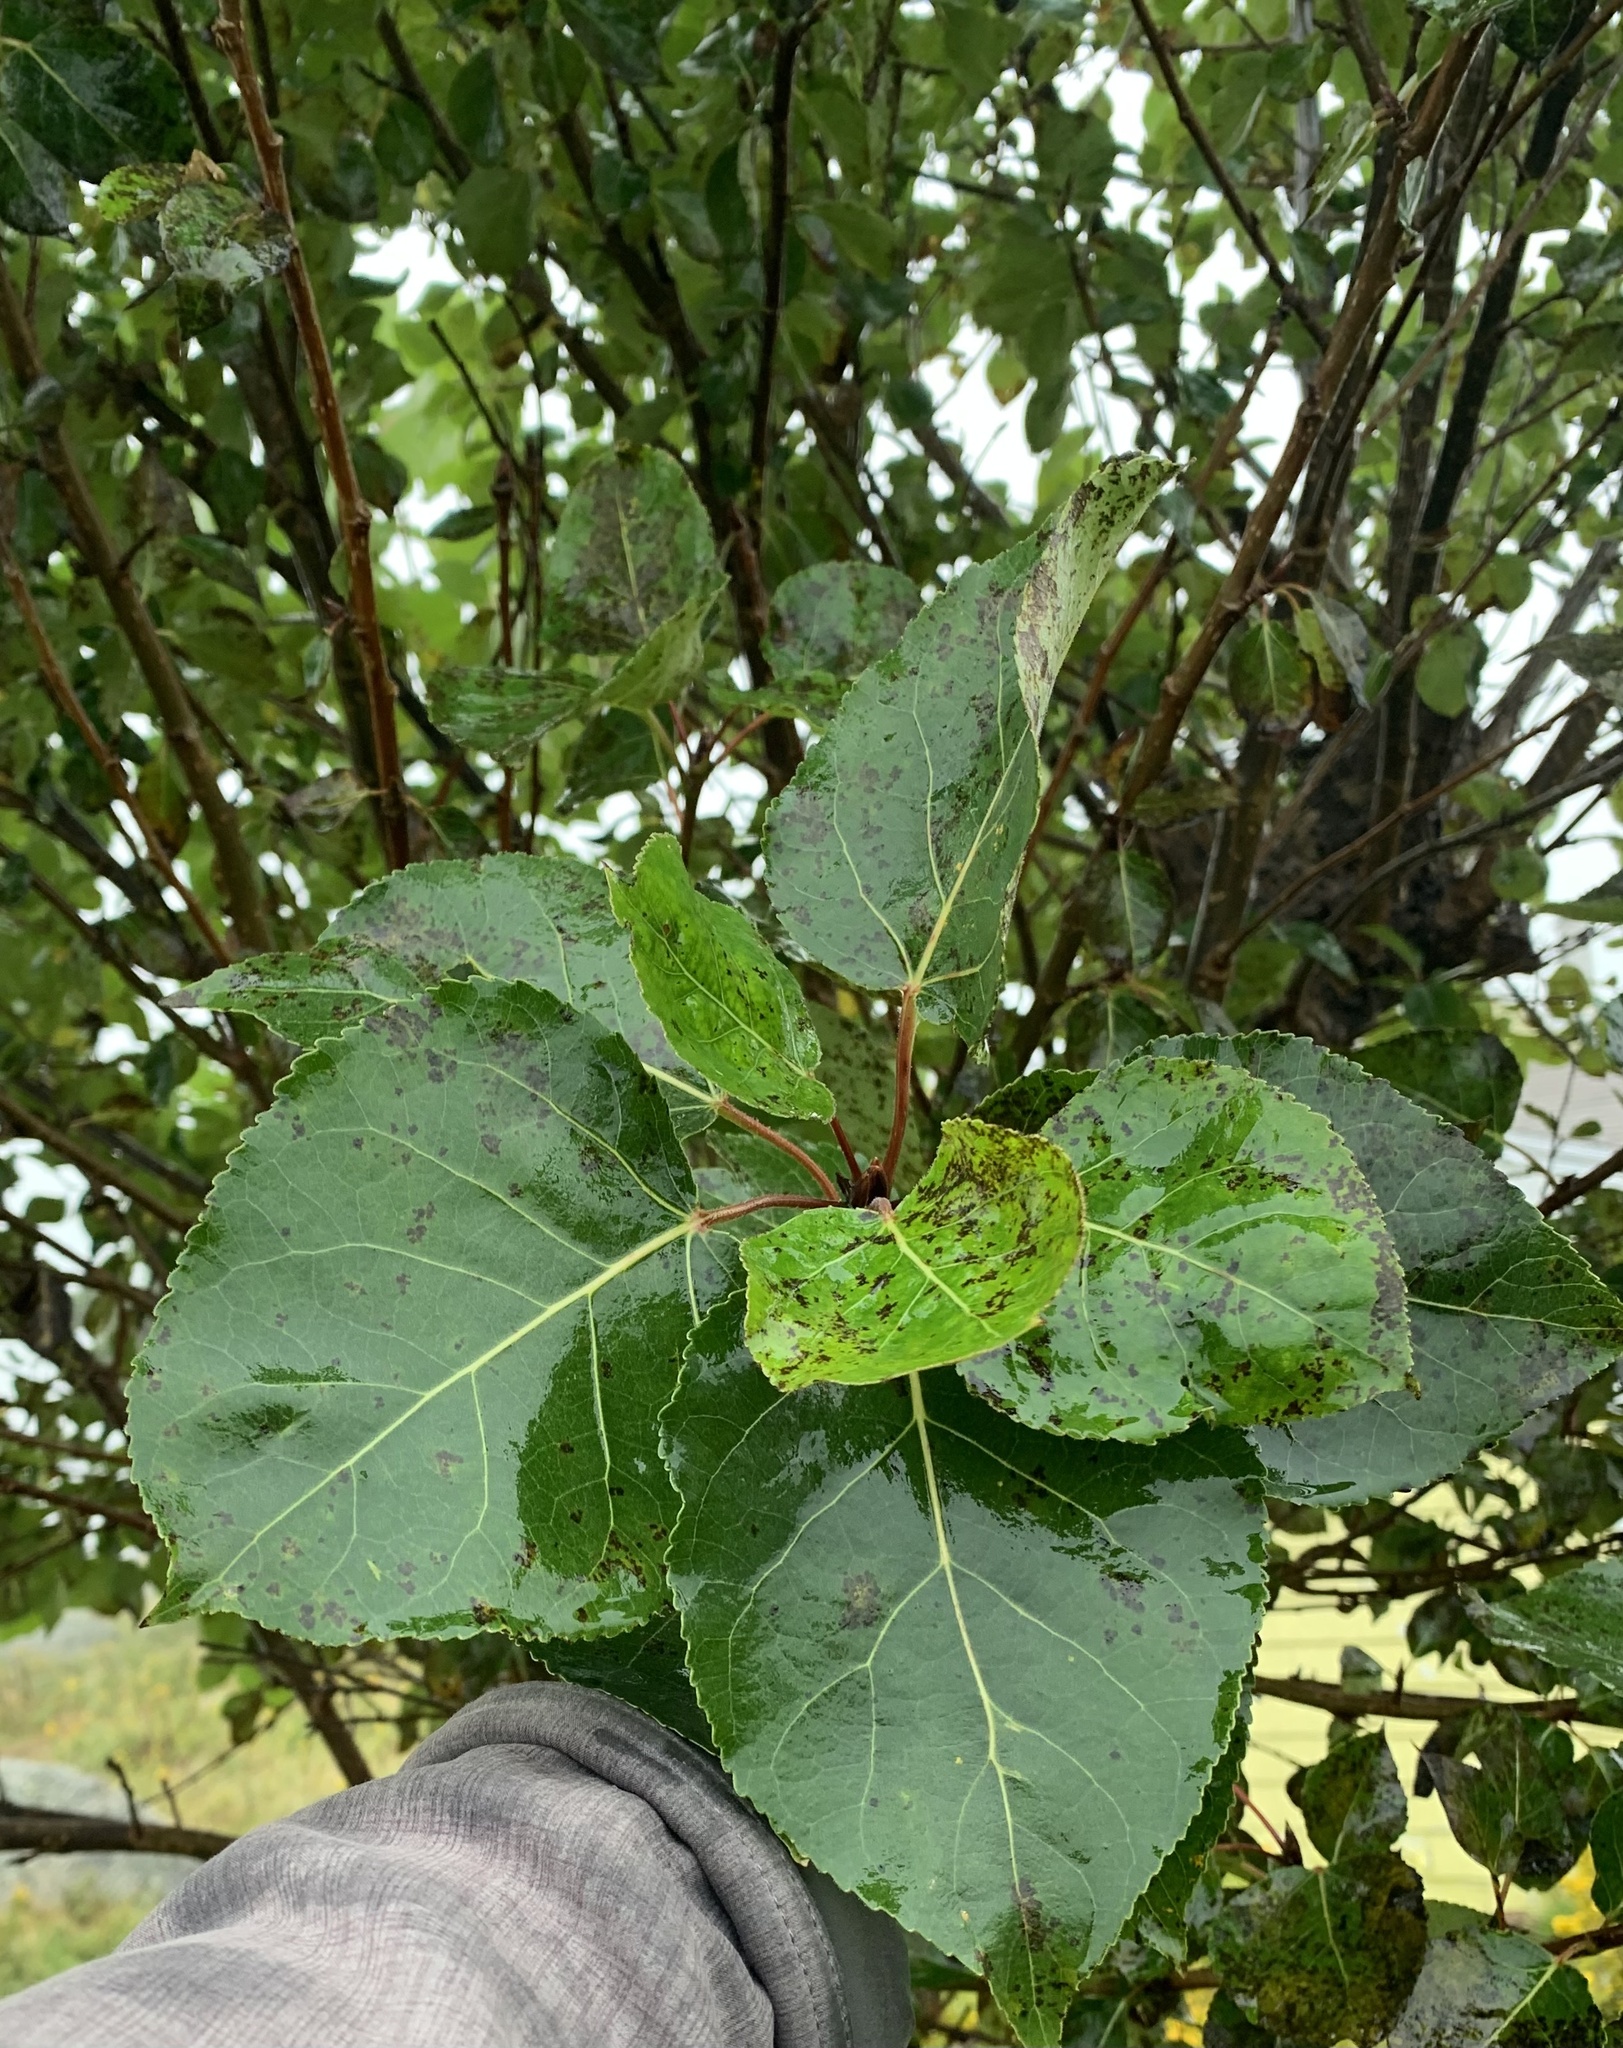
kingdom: Plantae
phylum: Tracheophyta
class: Magnoliopsida
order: Malpighiales
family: Salicaceae
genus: Populus
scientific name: Populus balsamifera
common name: Balsam poplar
